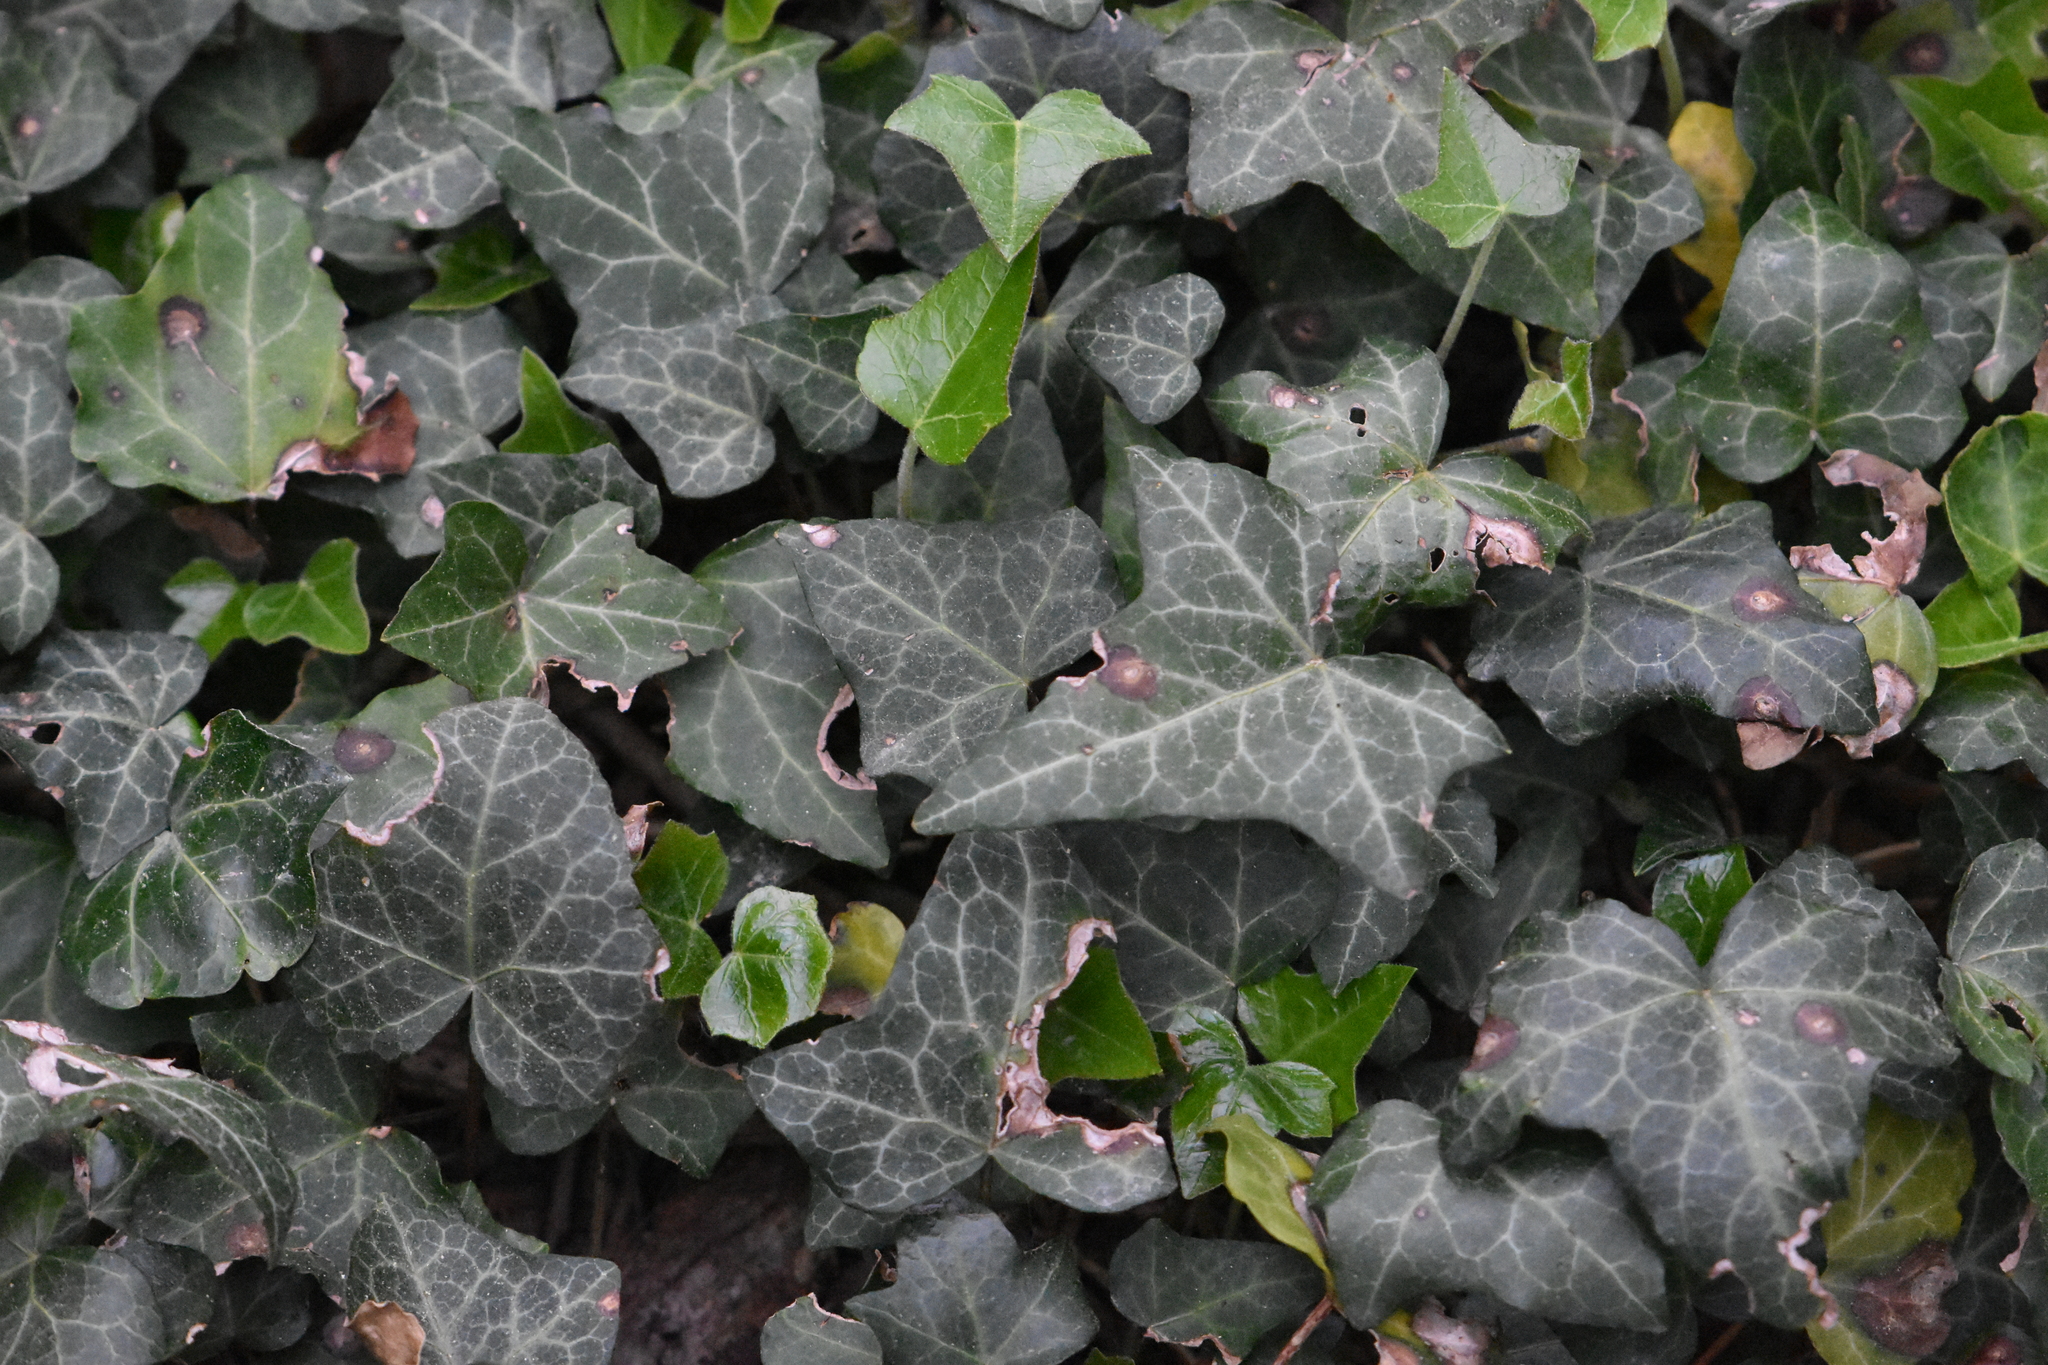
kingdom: Plantae
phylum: Tracheophyta
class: Magnoliopsida
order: Apiales
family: Araliaceae
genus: Hedera
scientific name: Hedera helix
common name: Ivy
